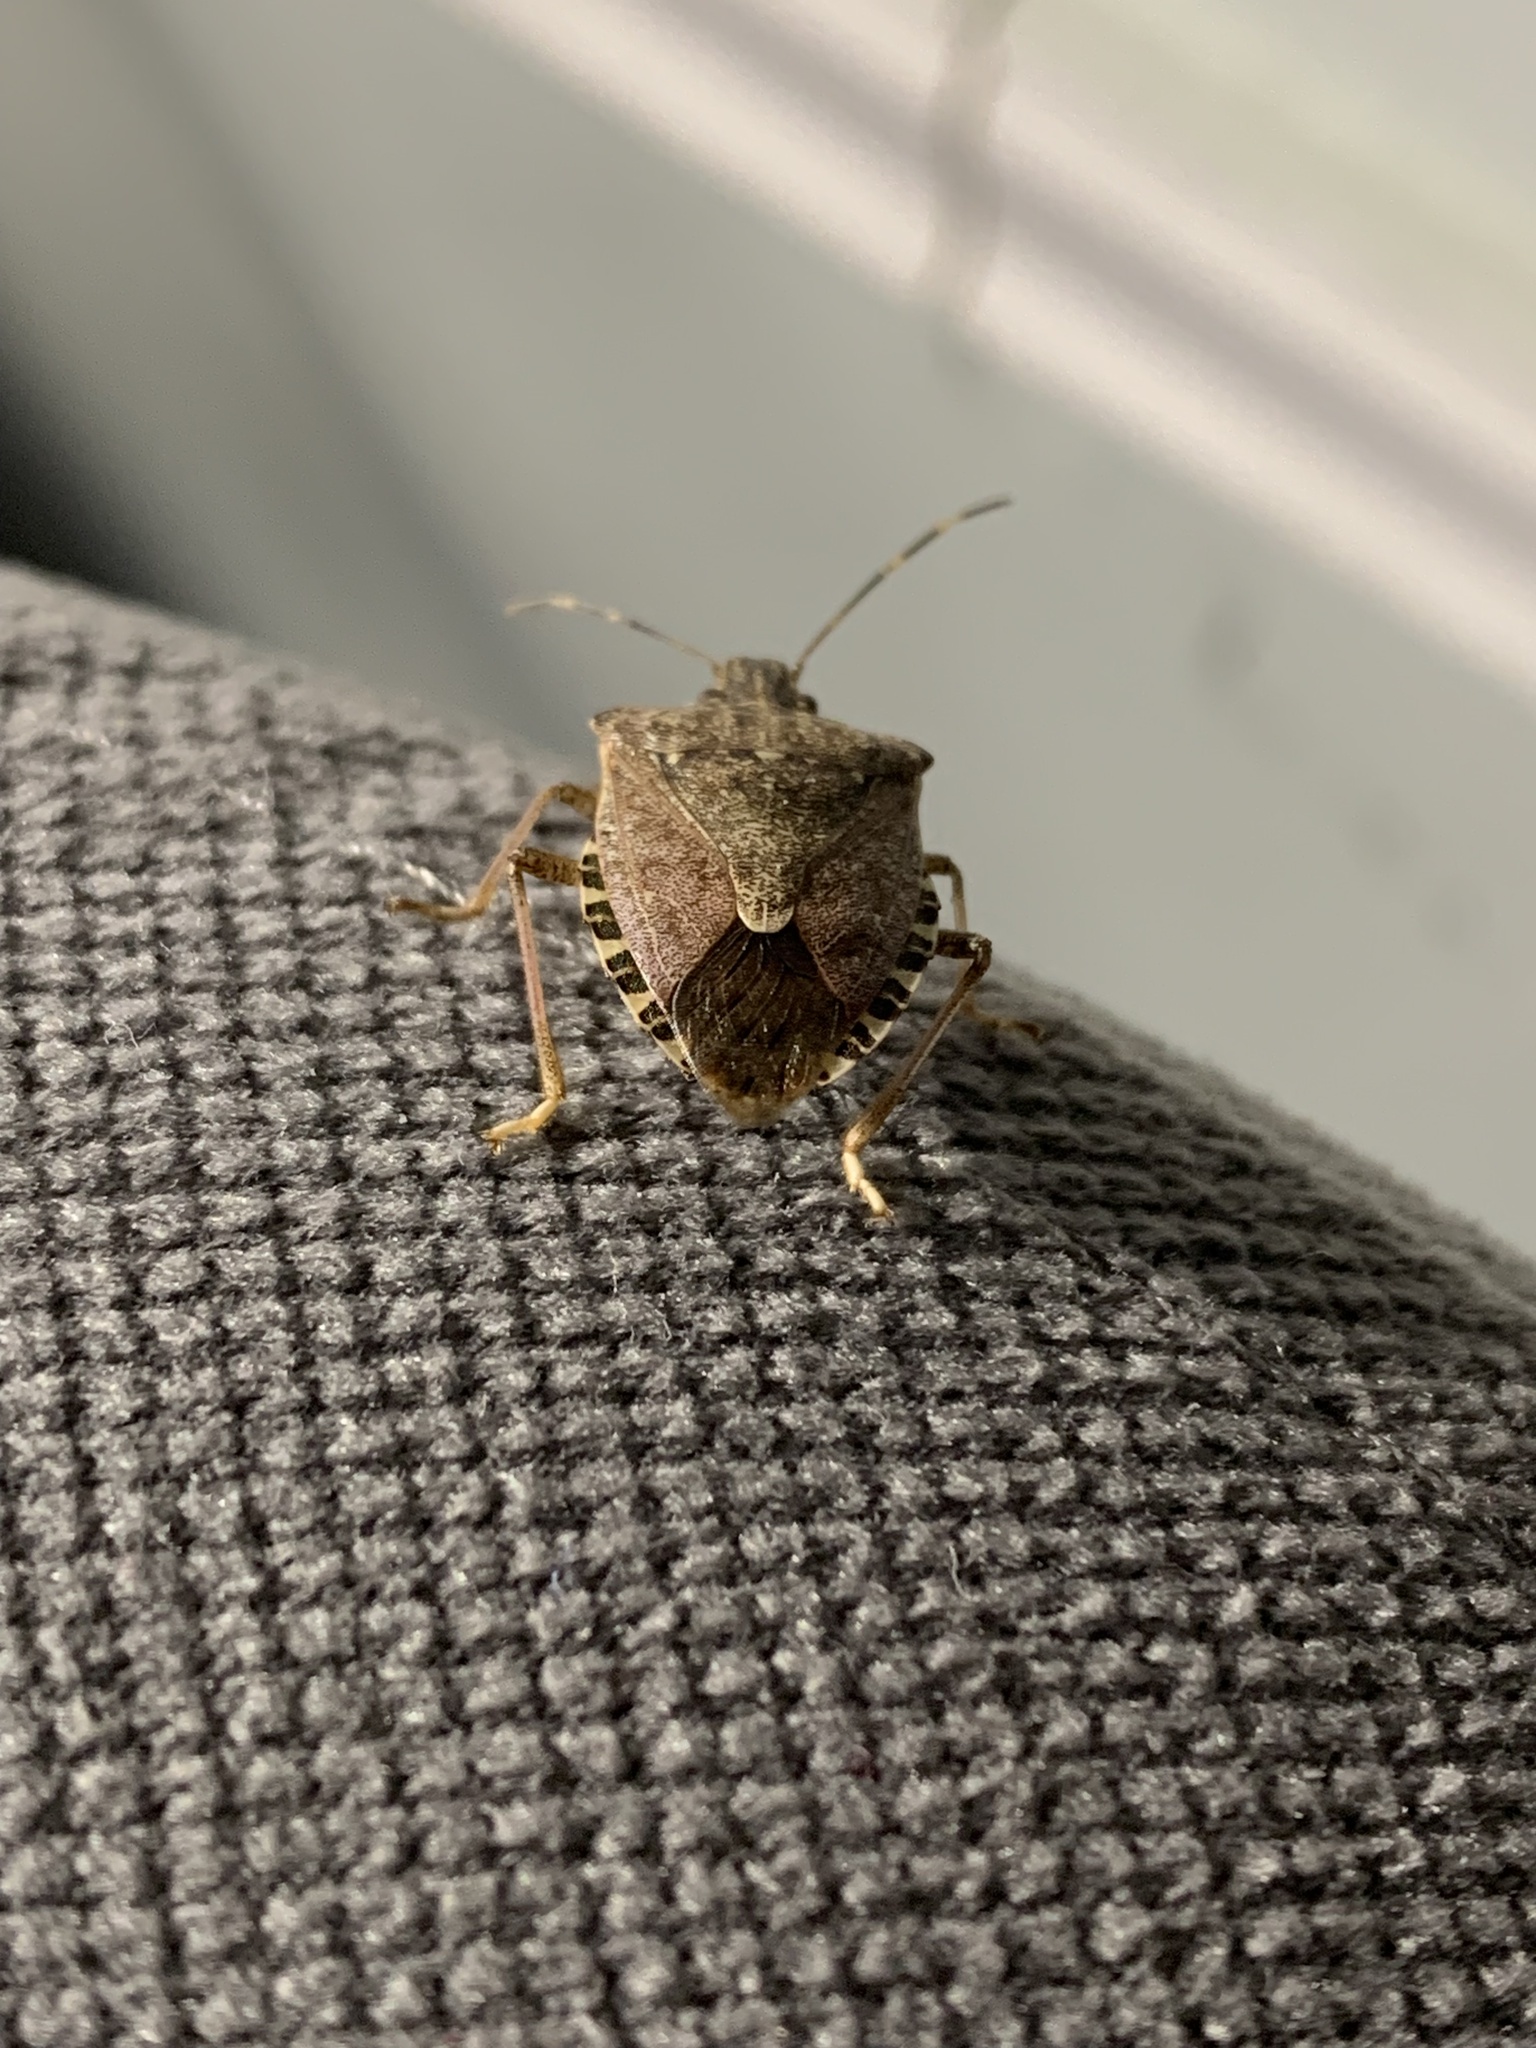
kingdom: Animalia
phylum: Arthropoda
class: Insecta
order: Hemiptera
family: Pentatomidae
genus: Halyomorpha
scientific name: Halyomorpha halys
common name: Brown marmorated stink bug
